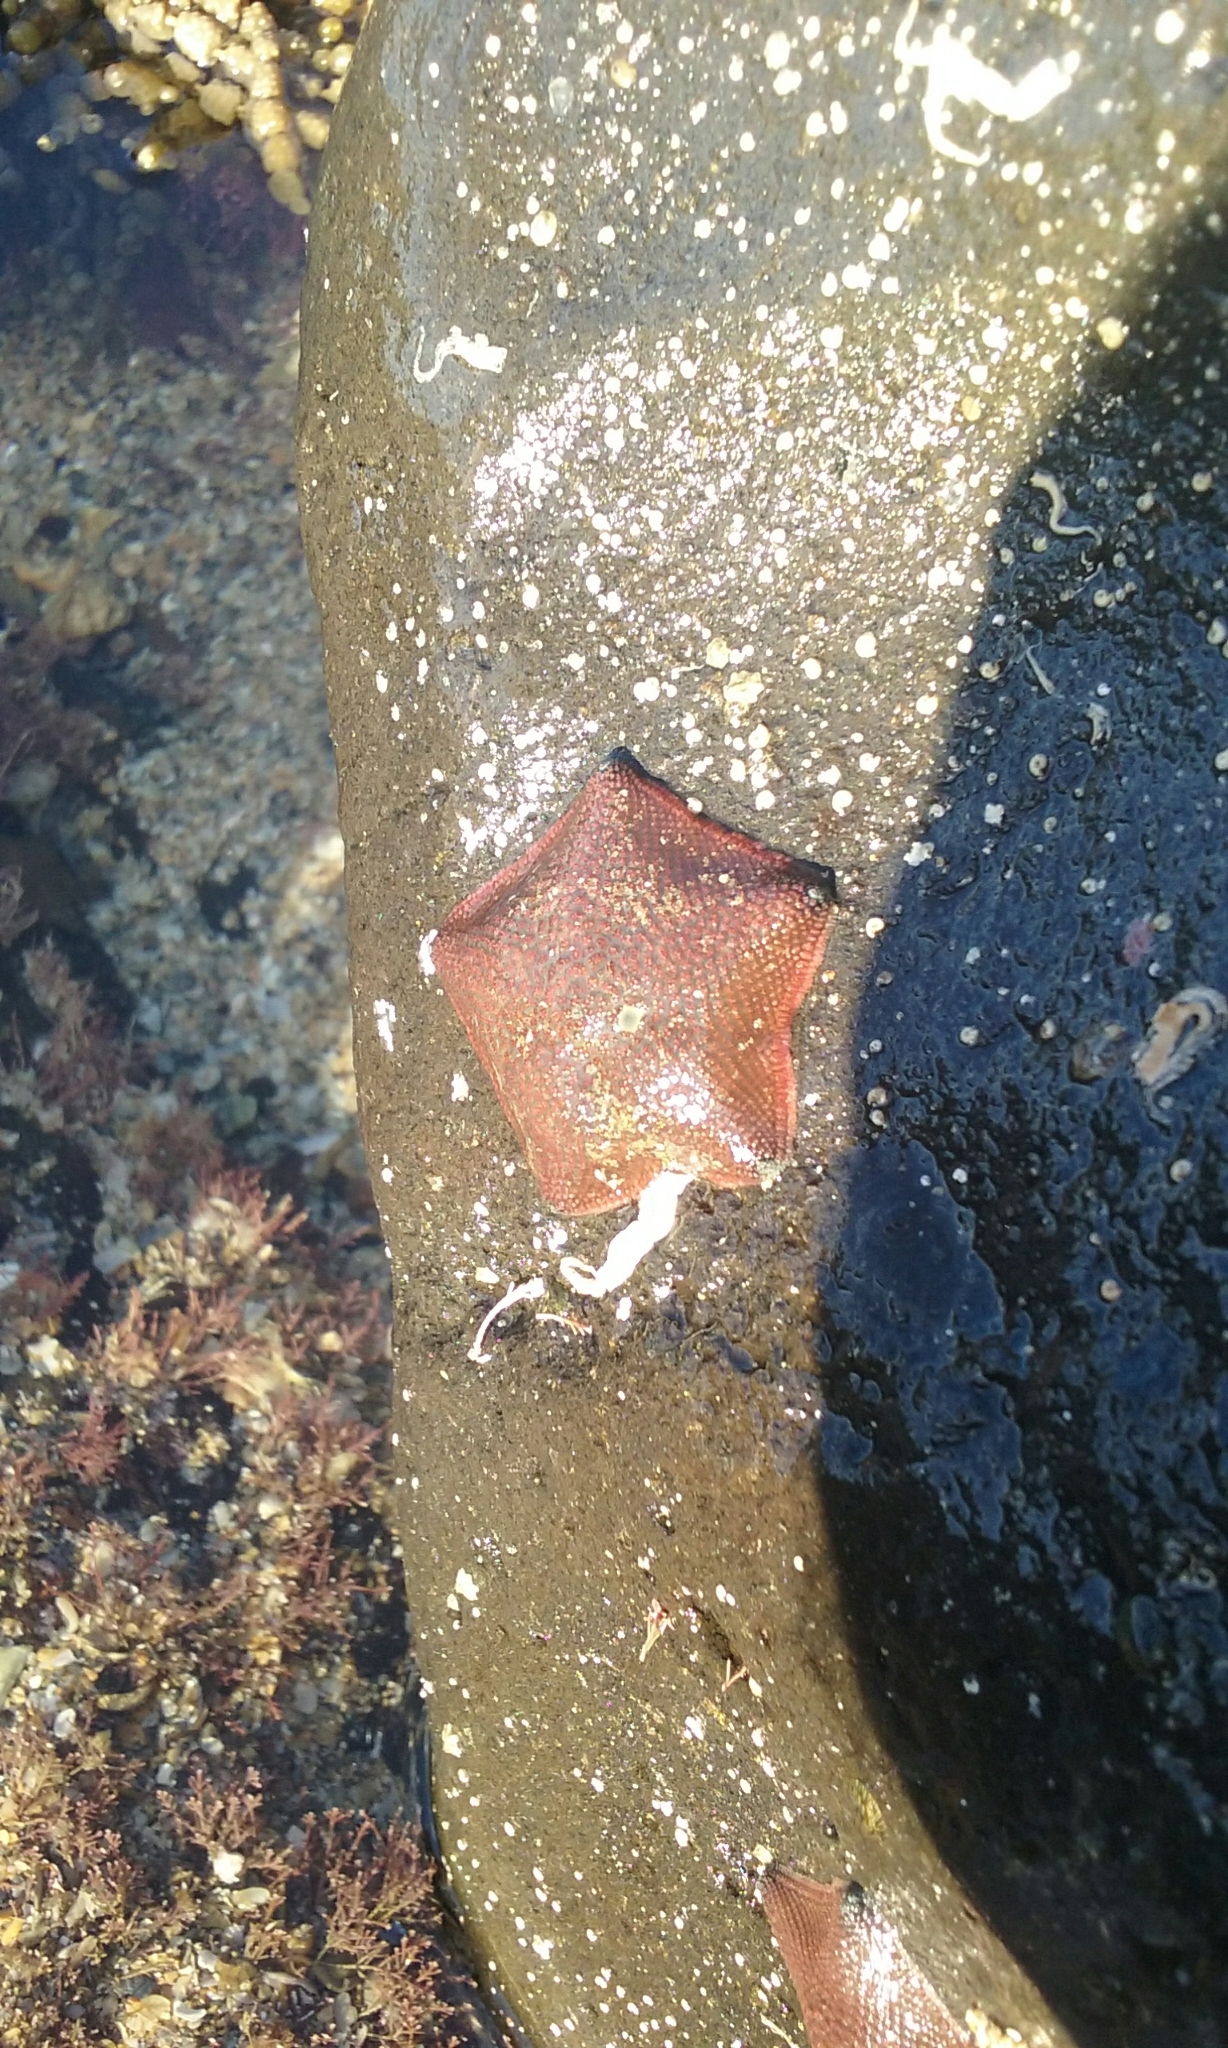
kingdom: Animalia
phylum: Echinodermata
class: Asteroidea
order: Valvatida
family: Asterinidae
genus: Patiriella
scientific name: Patiriella regularis
